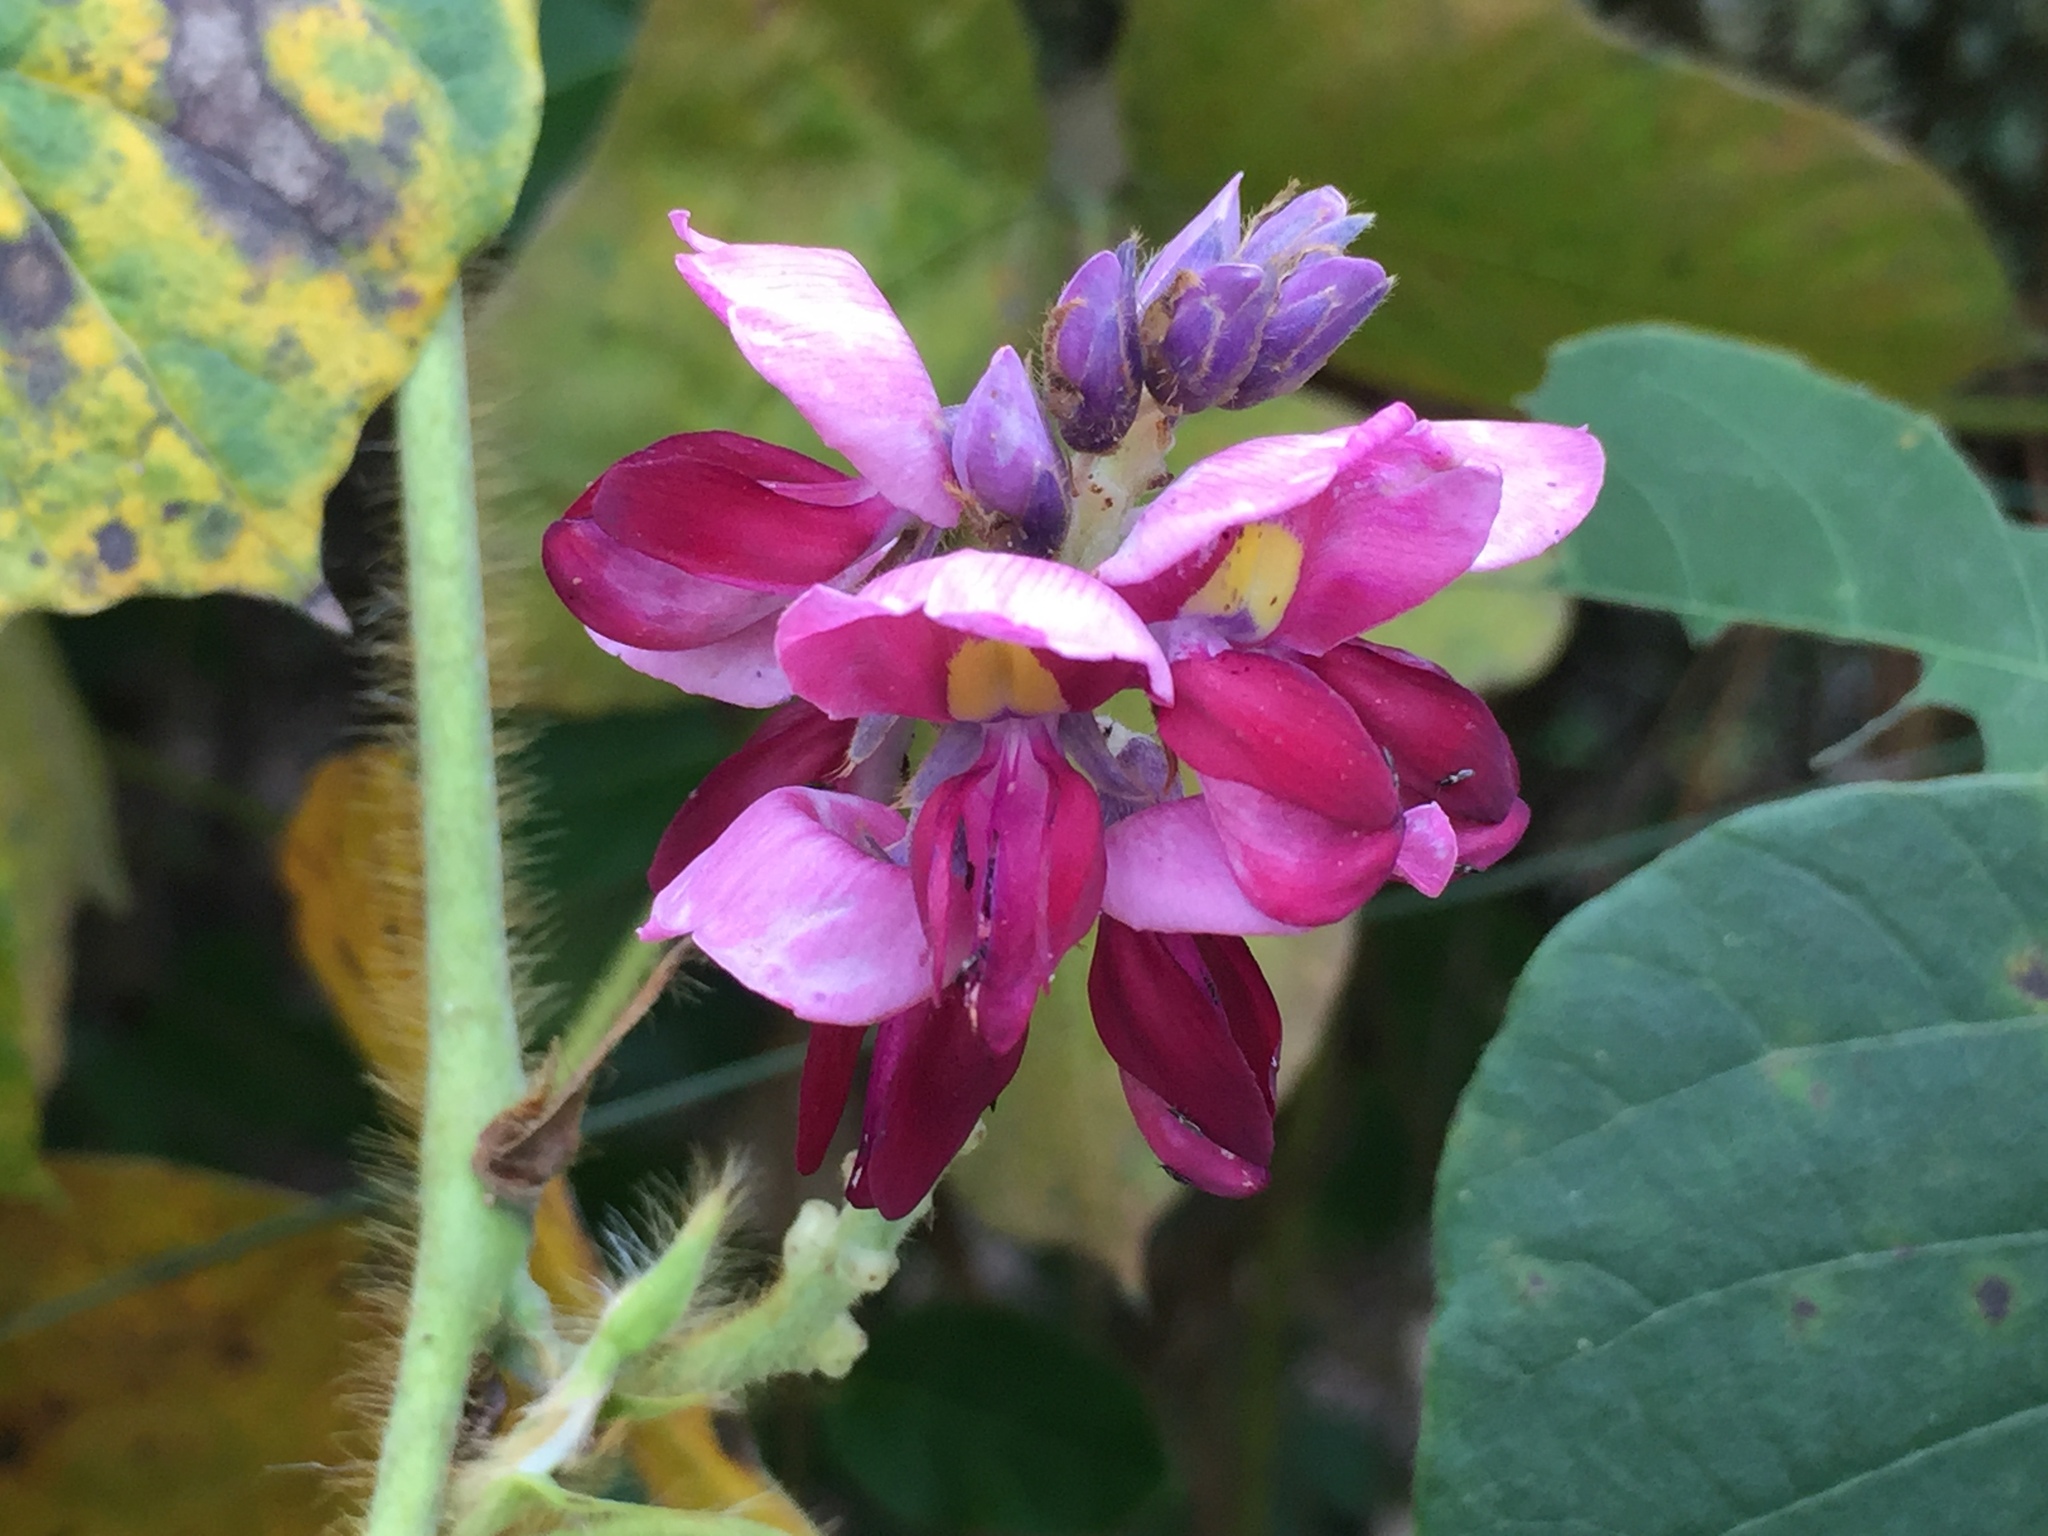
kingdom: Plantae
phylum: Tracheophyta
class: Magnoliopsida
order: Fabales
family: Fabaceae
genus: Pueraria
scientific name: Pueraria montana
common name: Kudzu
